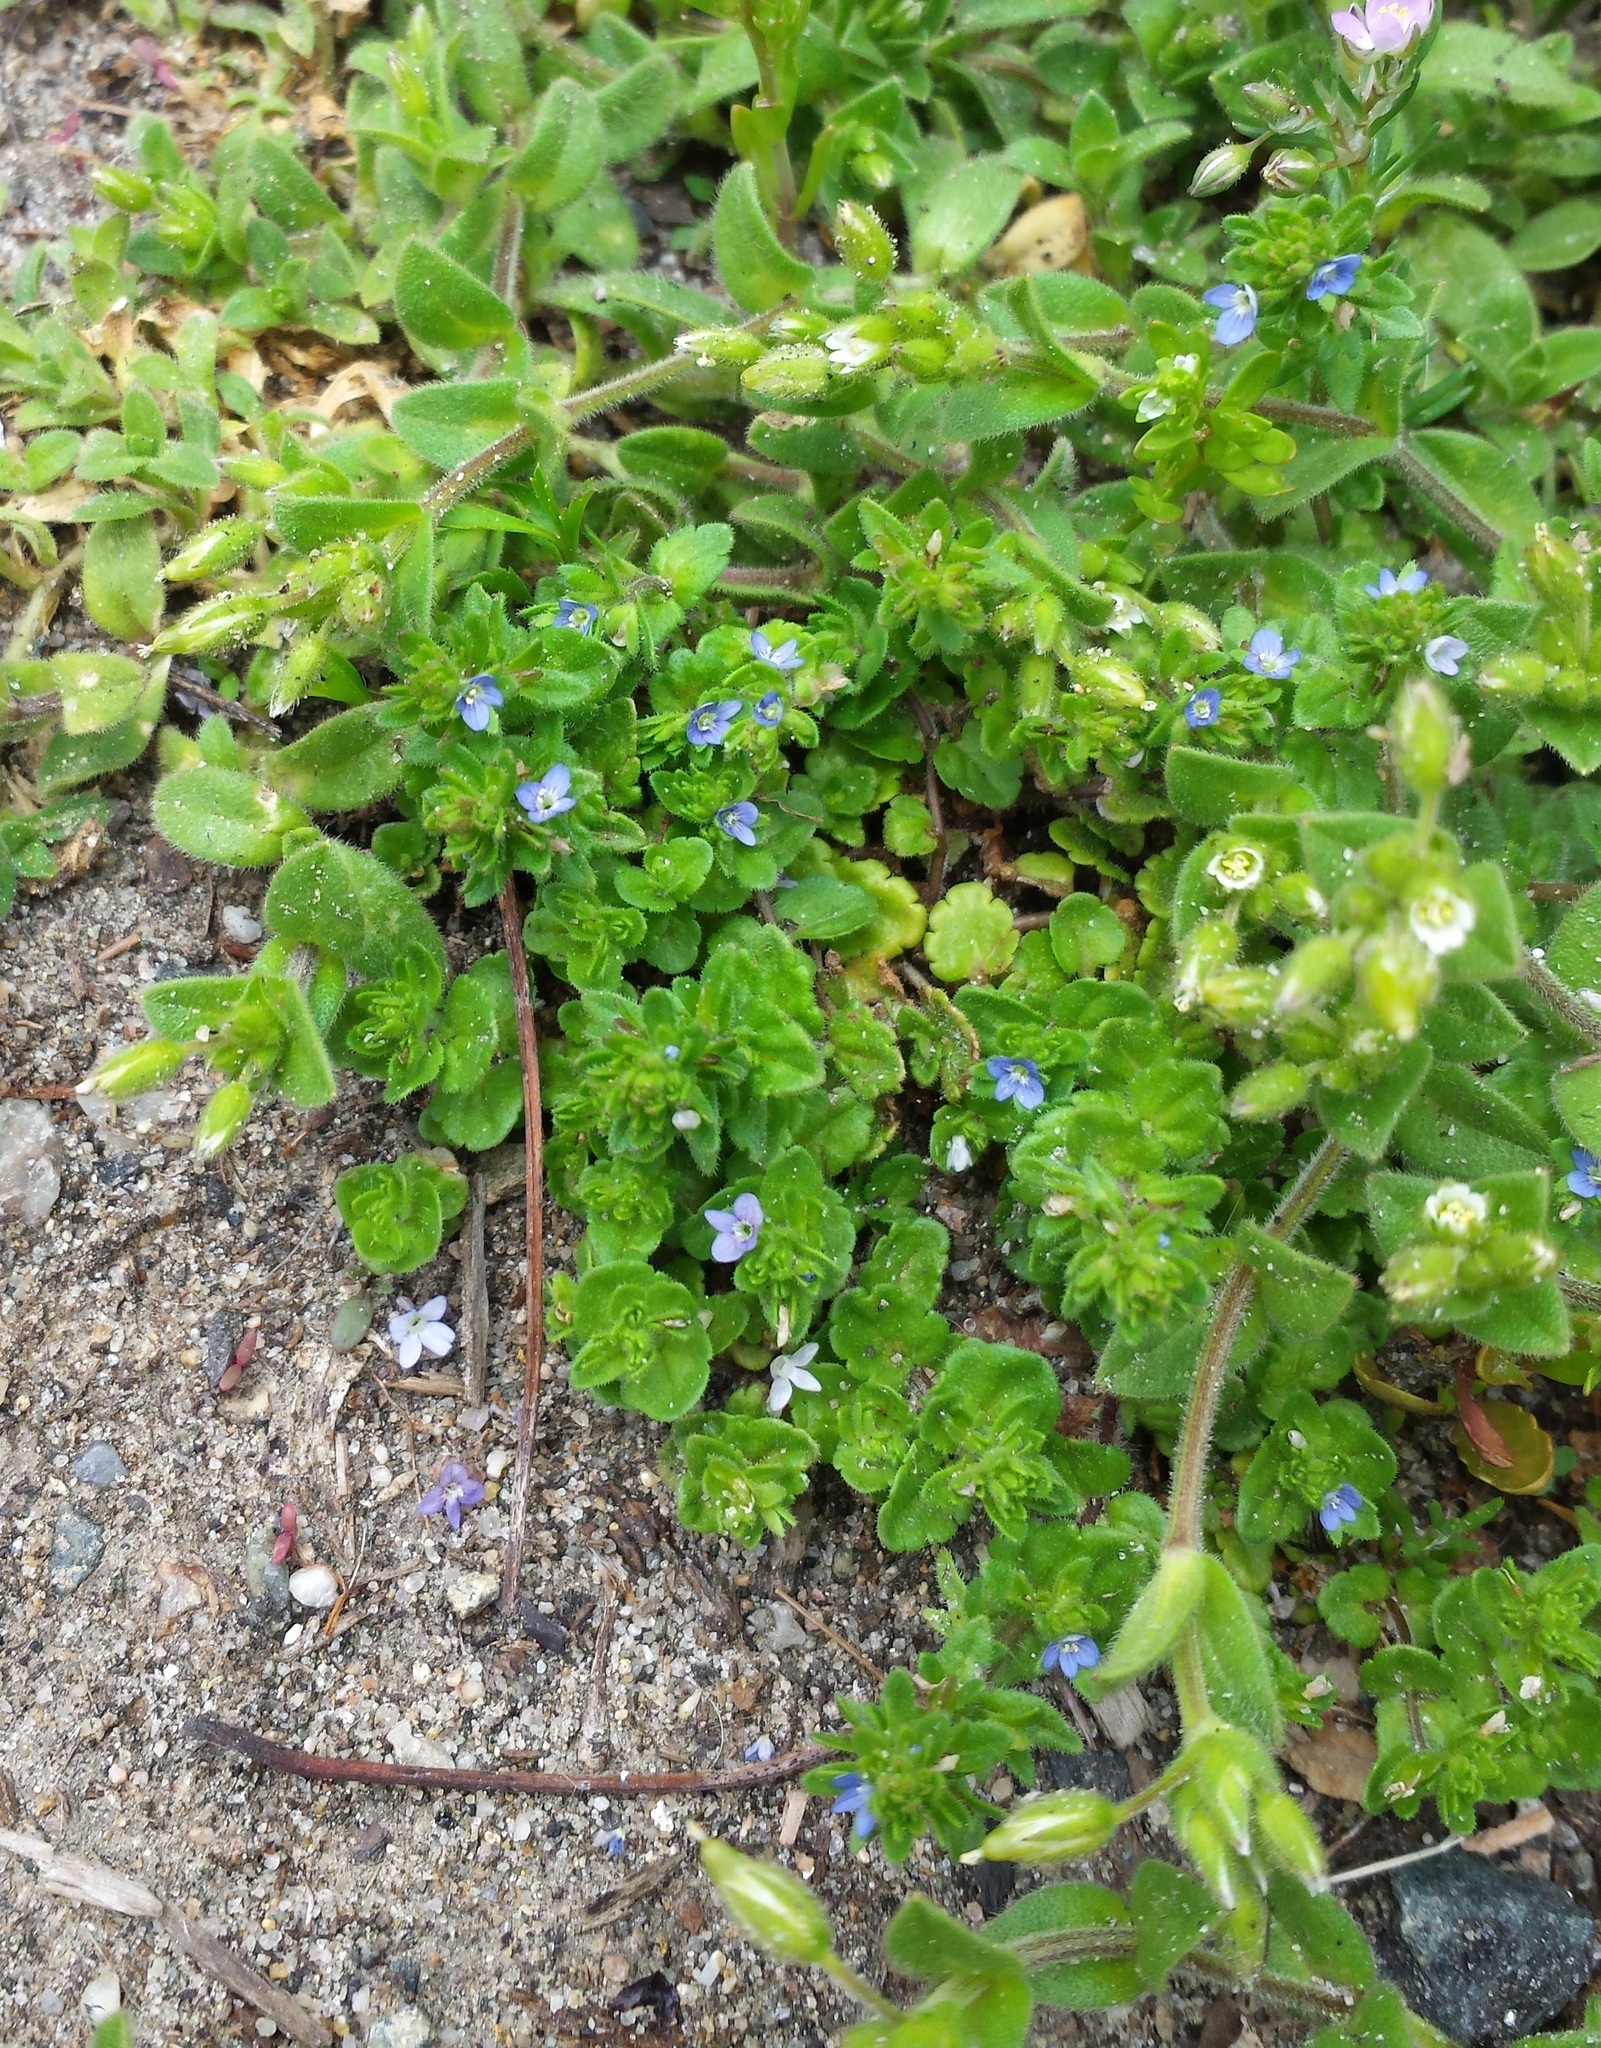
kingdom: Plantae
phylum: Tracheophyta
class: Magnoliopsida
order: Lamiales
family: Plantaginaceae
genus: Veronica
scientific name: Veronica arvensis
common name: Corn speedwell
